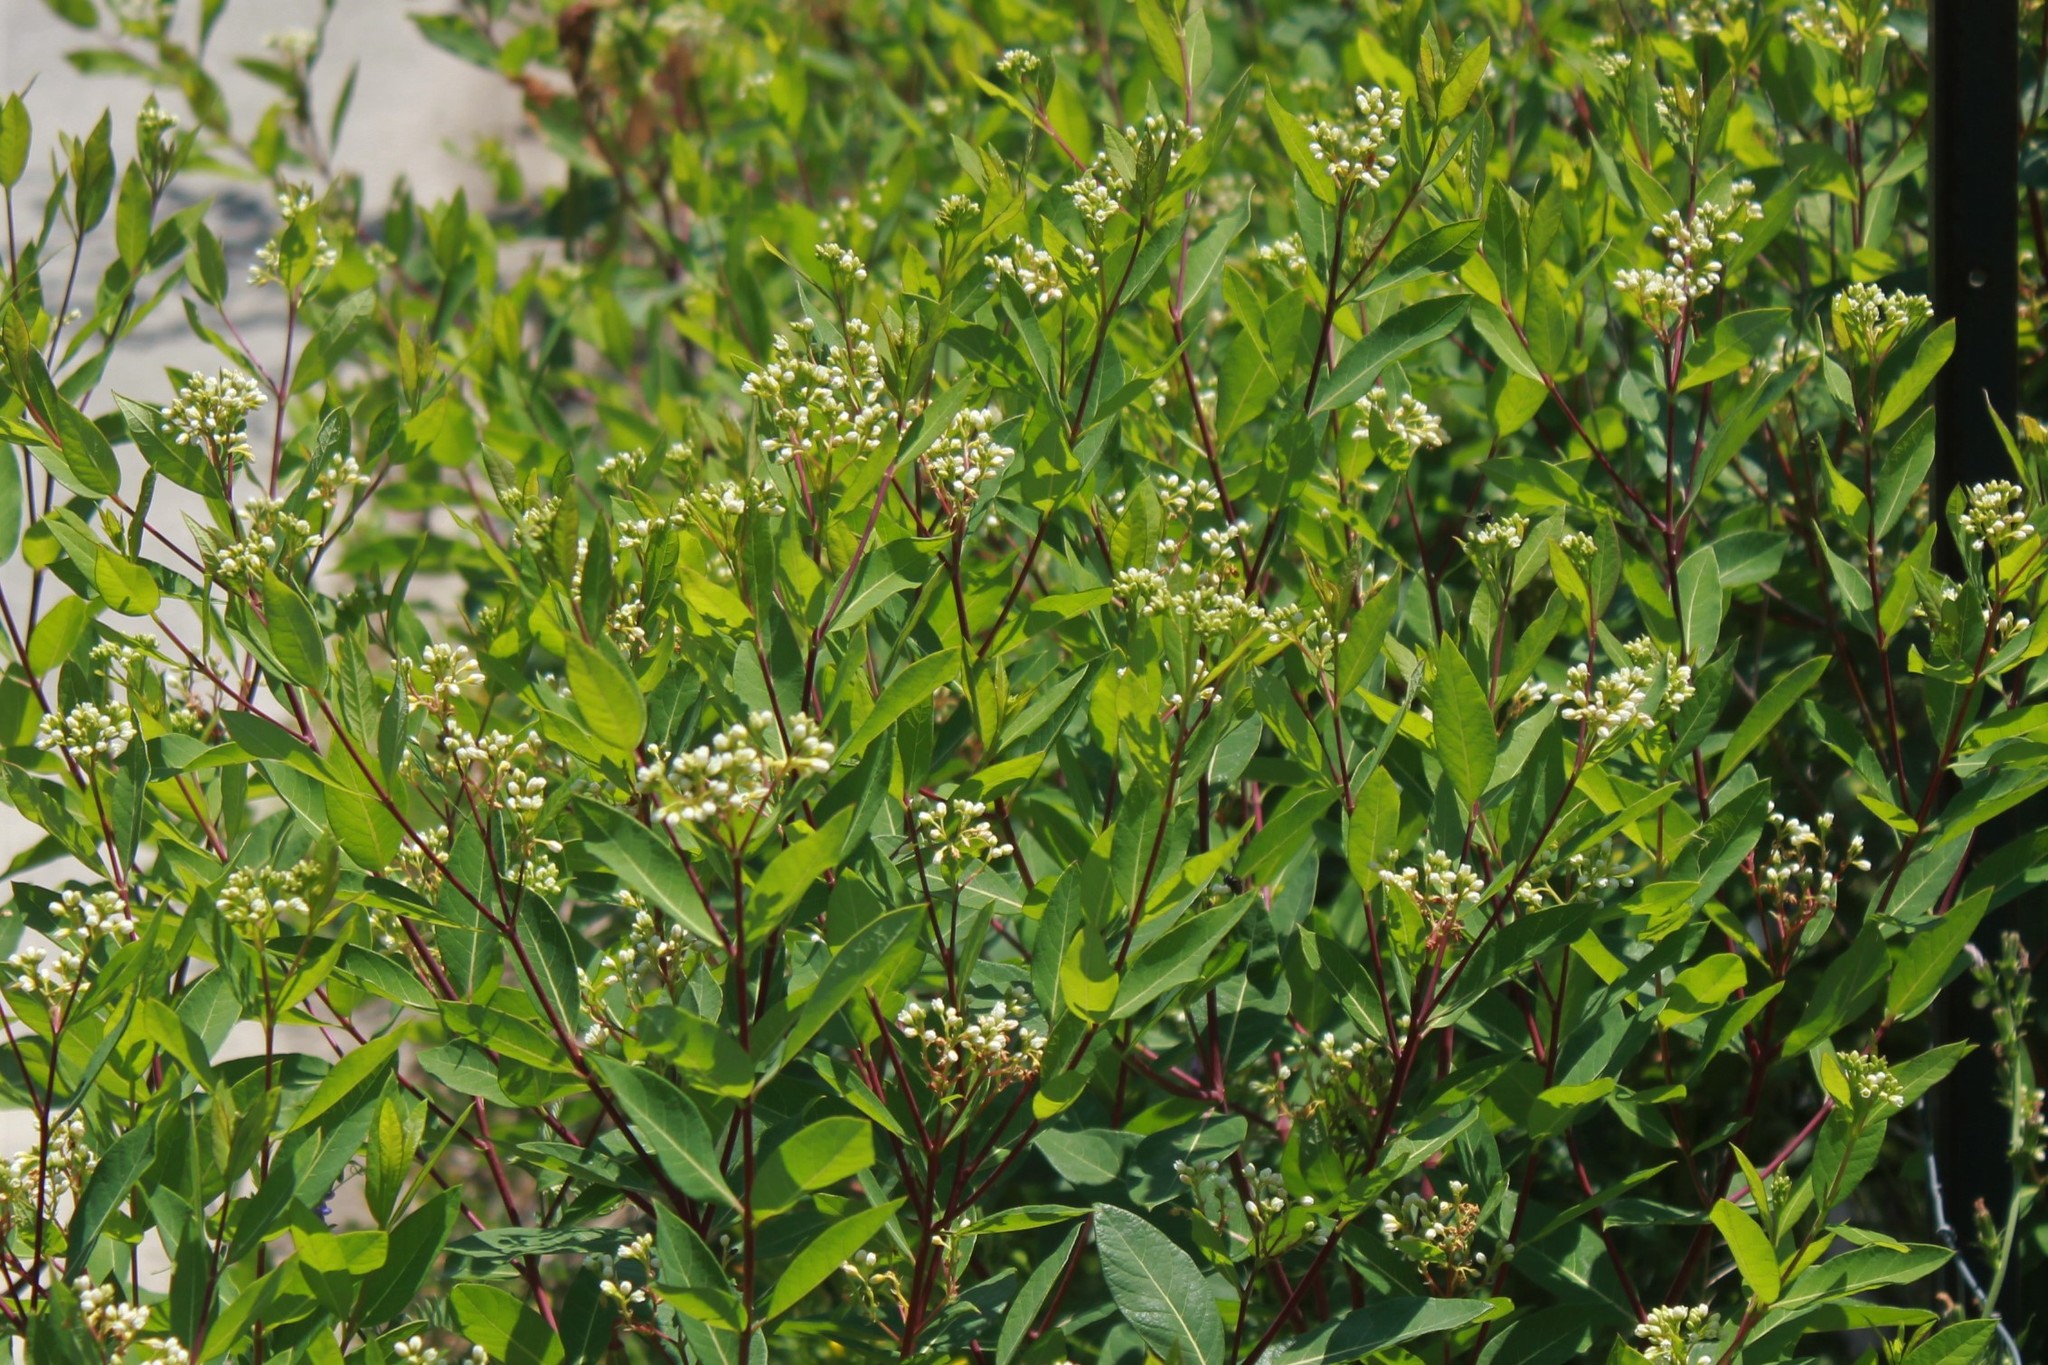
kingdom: Plantae
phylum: Tracheophyta
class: Magnoliopsida
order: Gentianales
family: Apocynaceae
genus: Apocynum
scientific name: Apocynum cannabinum
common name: Hemp dogbane
